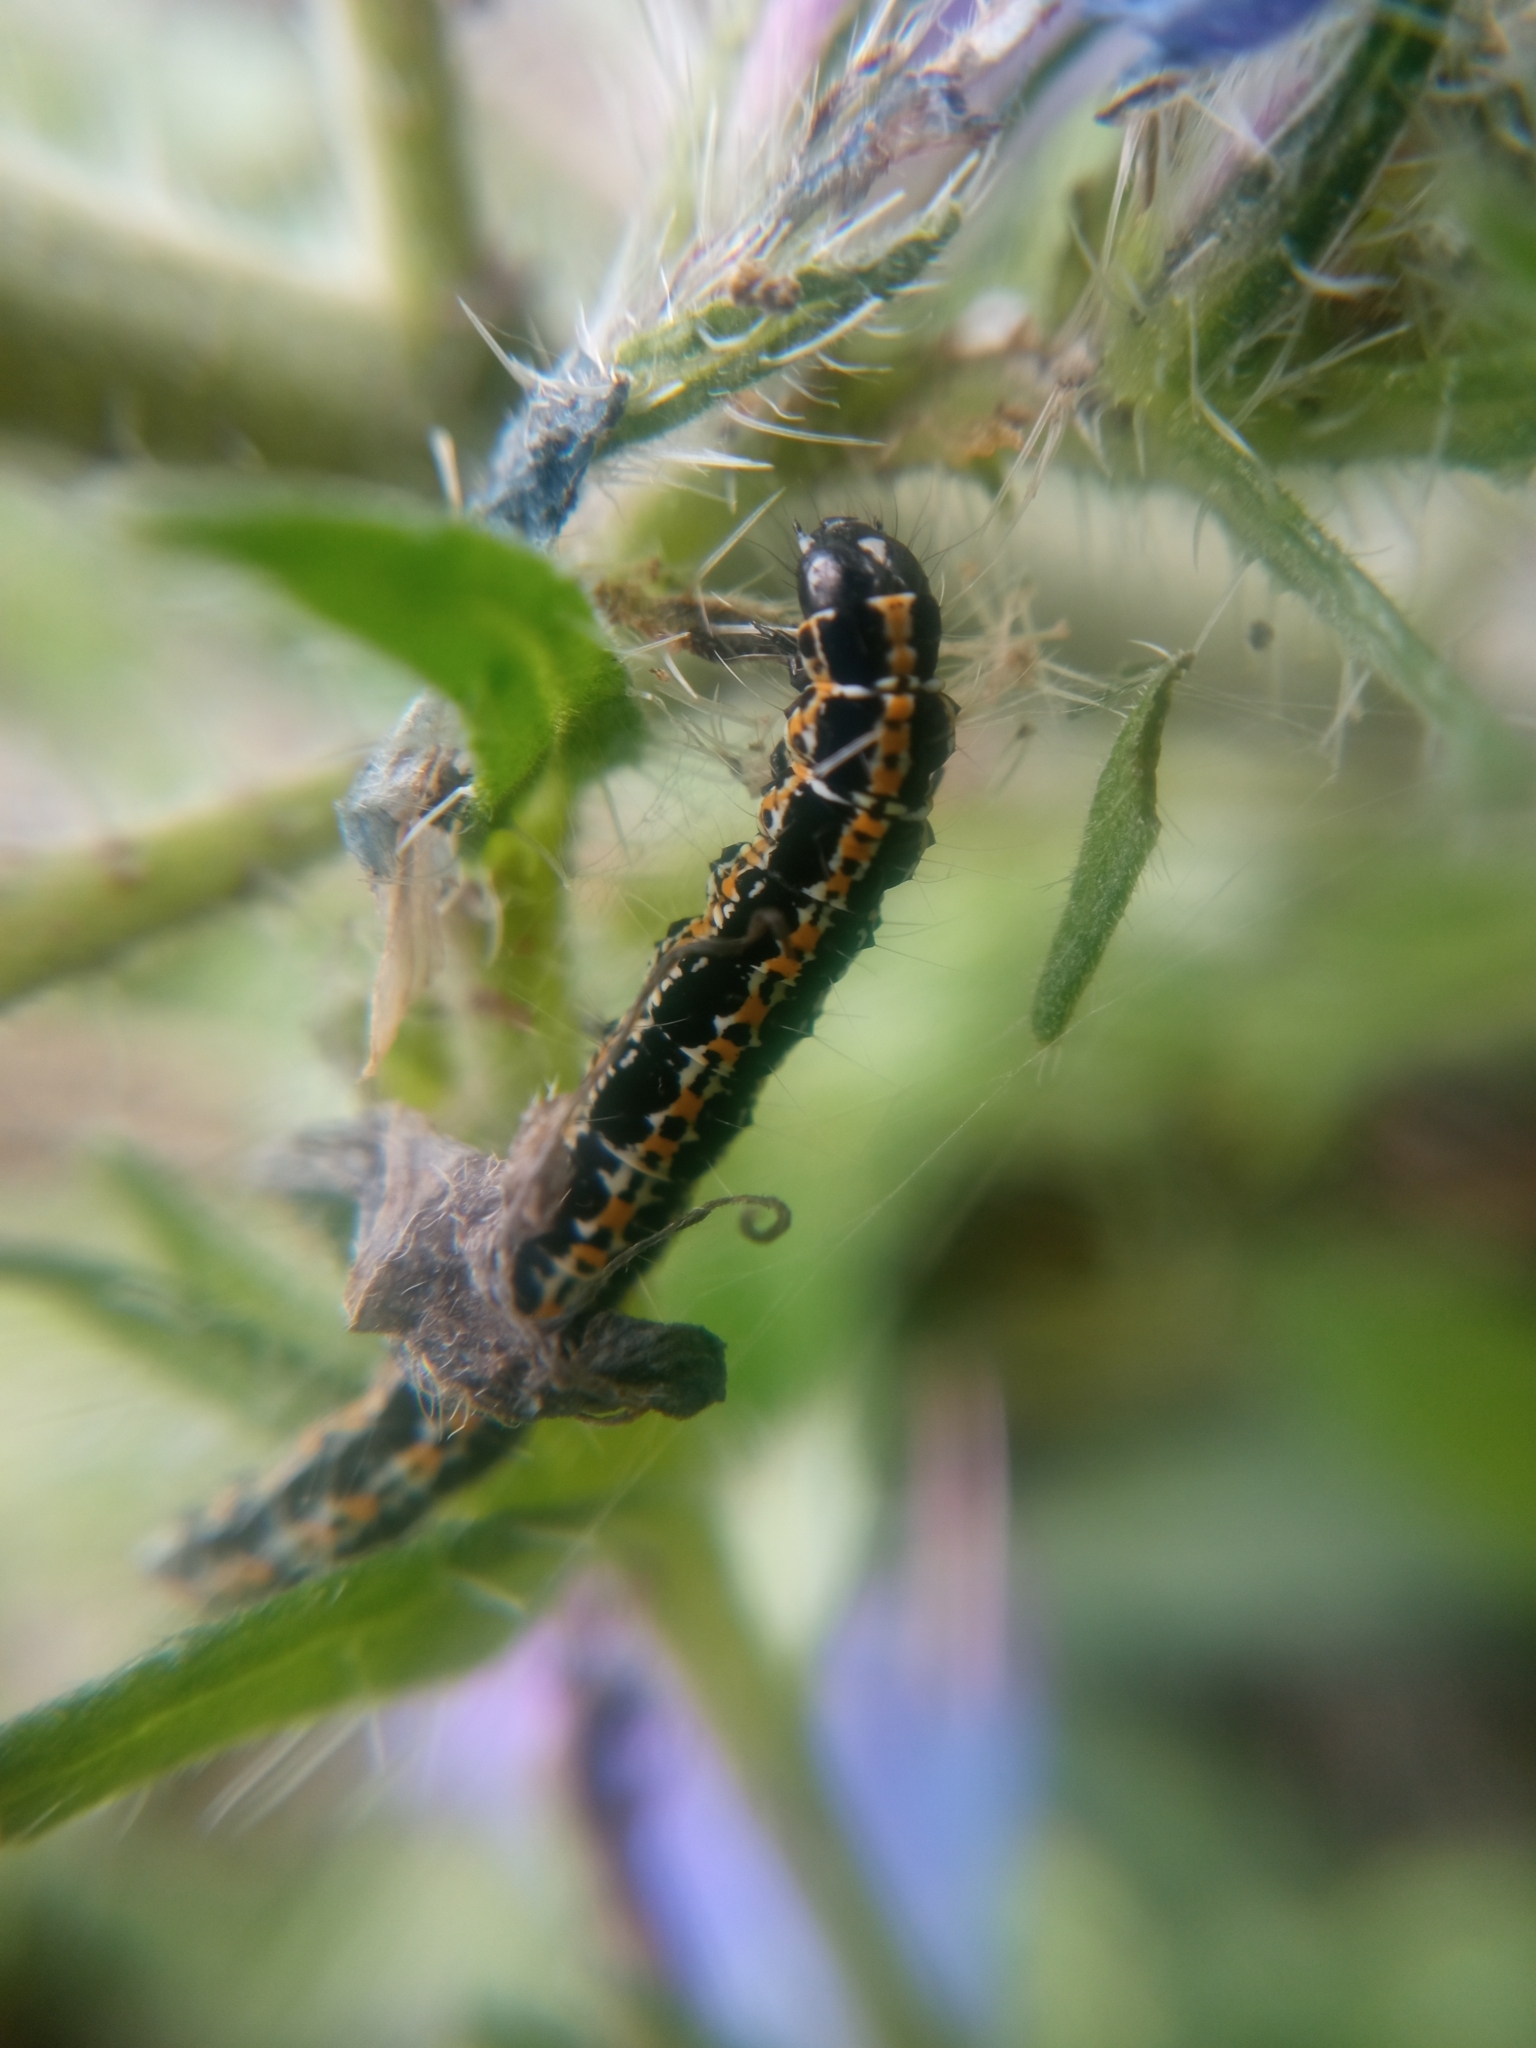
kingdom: Animalia
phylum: Arthropoda
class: Insecta
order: Lepidoptera
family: Ethmiidae
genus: Ethmia
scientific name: Ethmia bipunctella
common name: Bordered ermel
